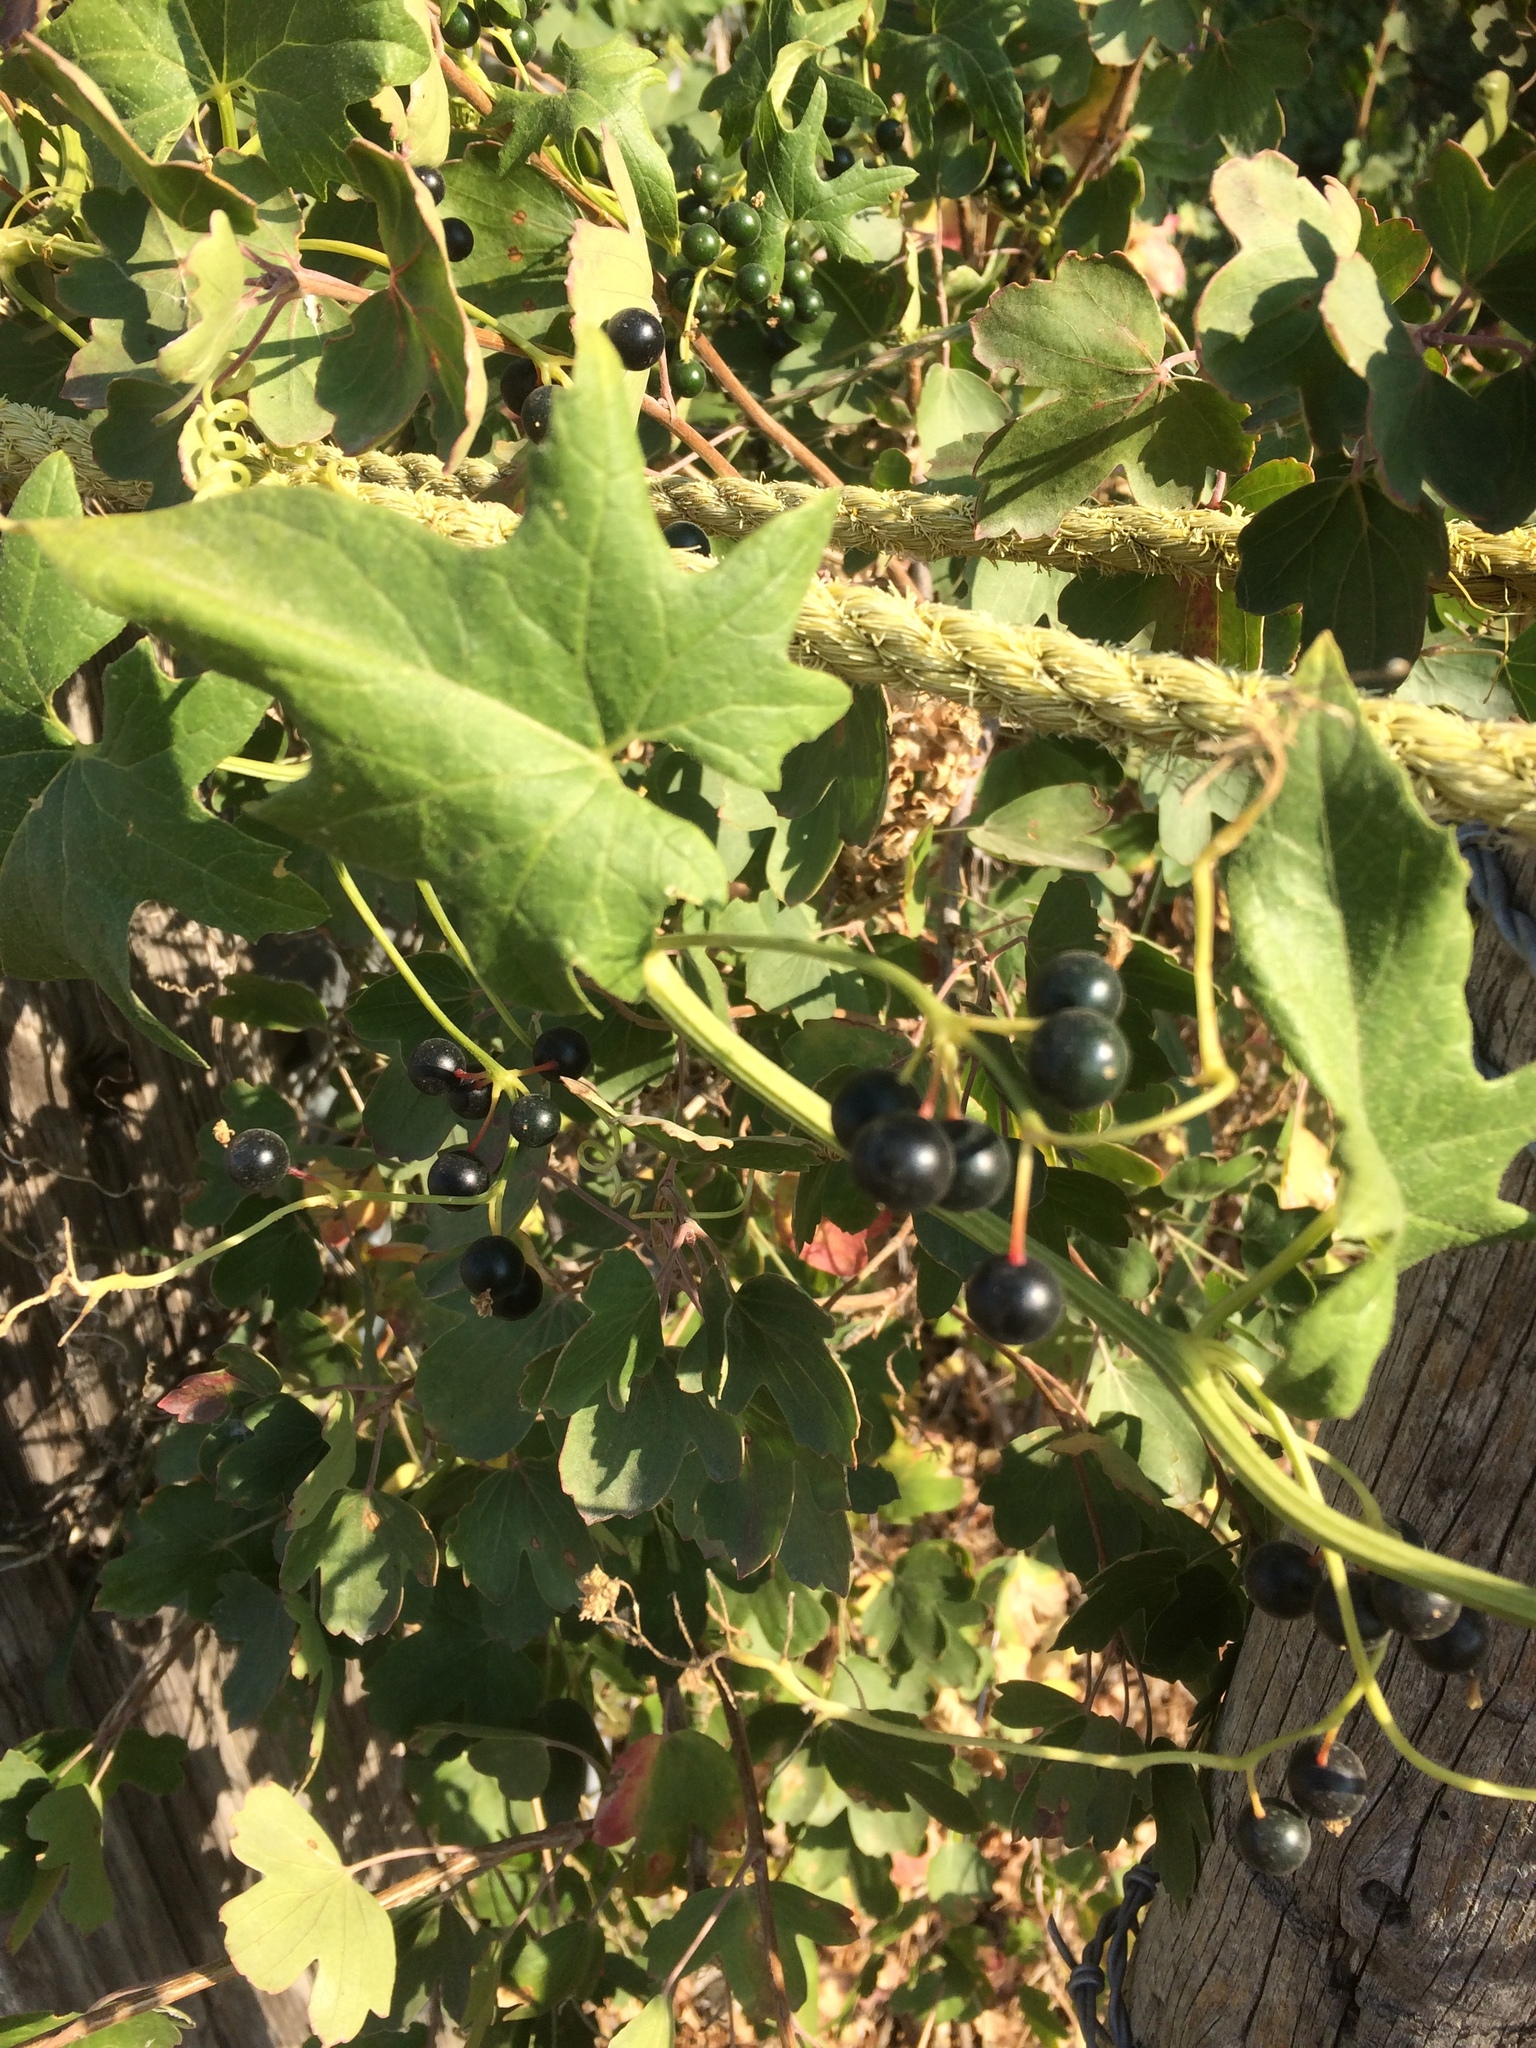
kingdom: Plantae
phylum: Tracheophyta
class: Magnoliopsida
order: Cucurbitales
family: Cucurbitaceae
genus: Bryonia
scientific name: Bryonia alba
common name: White bryony
